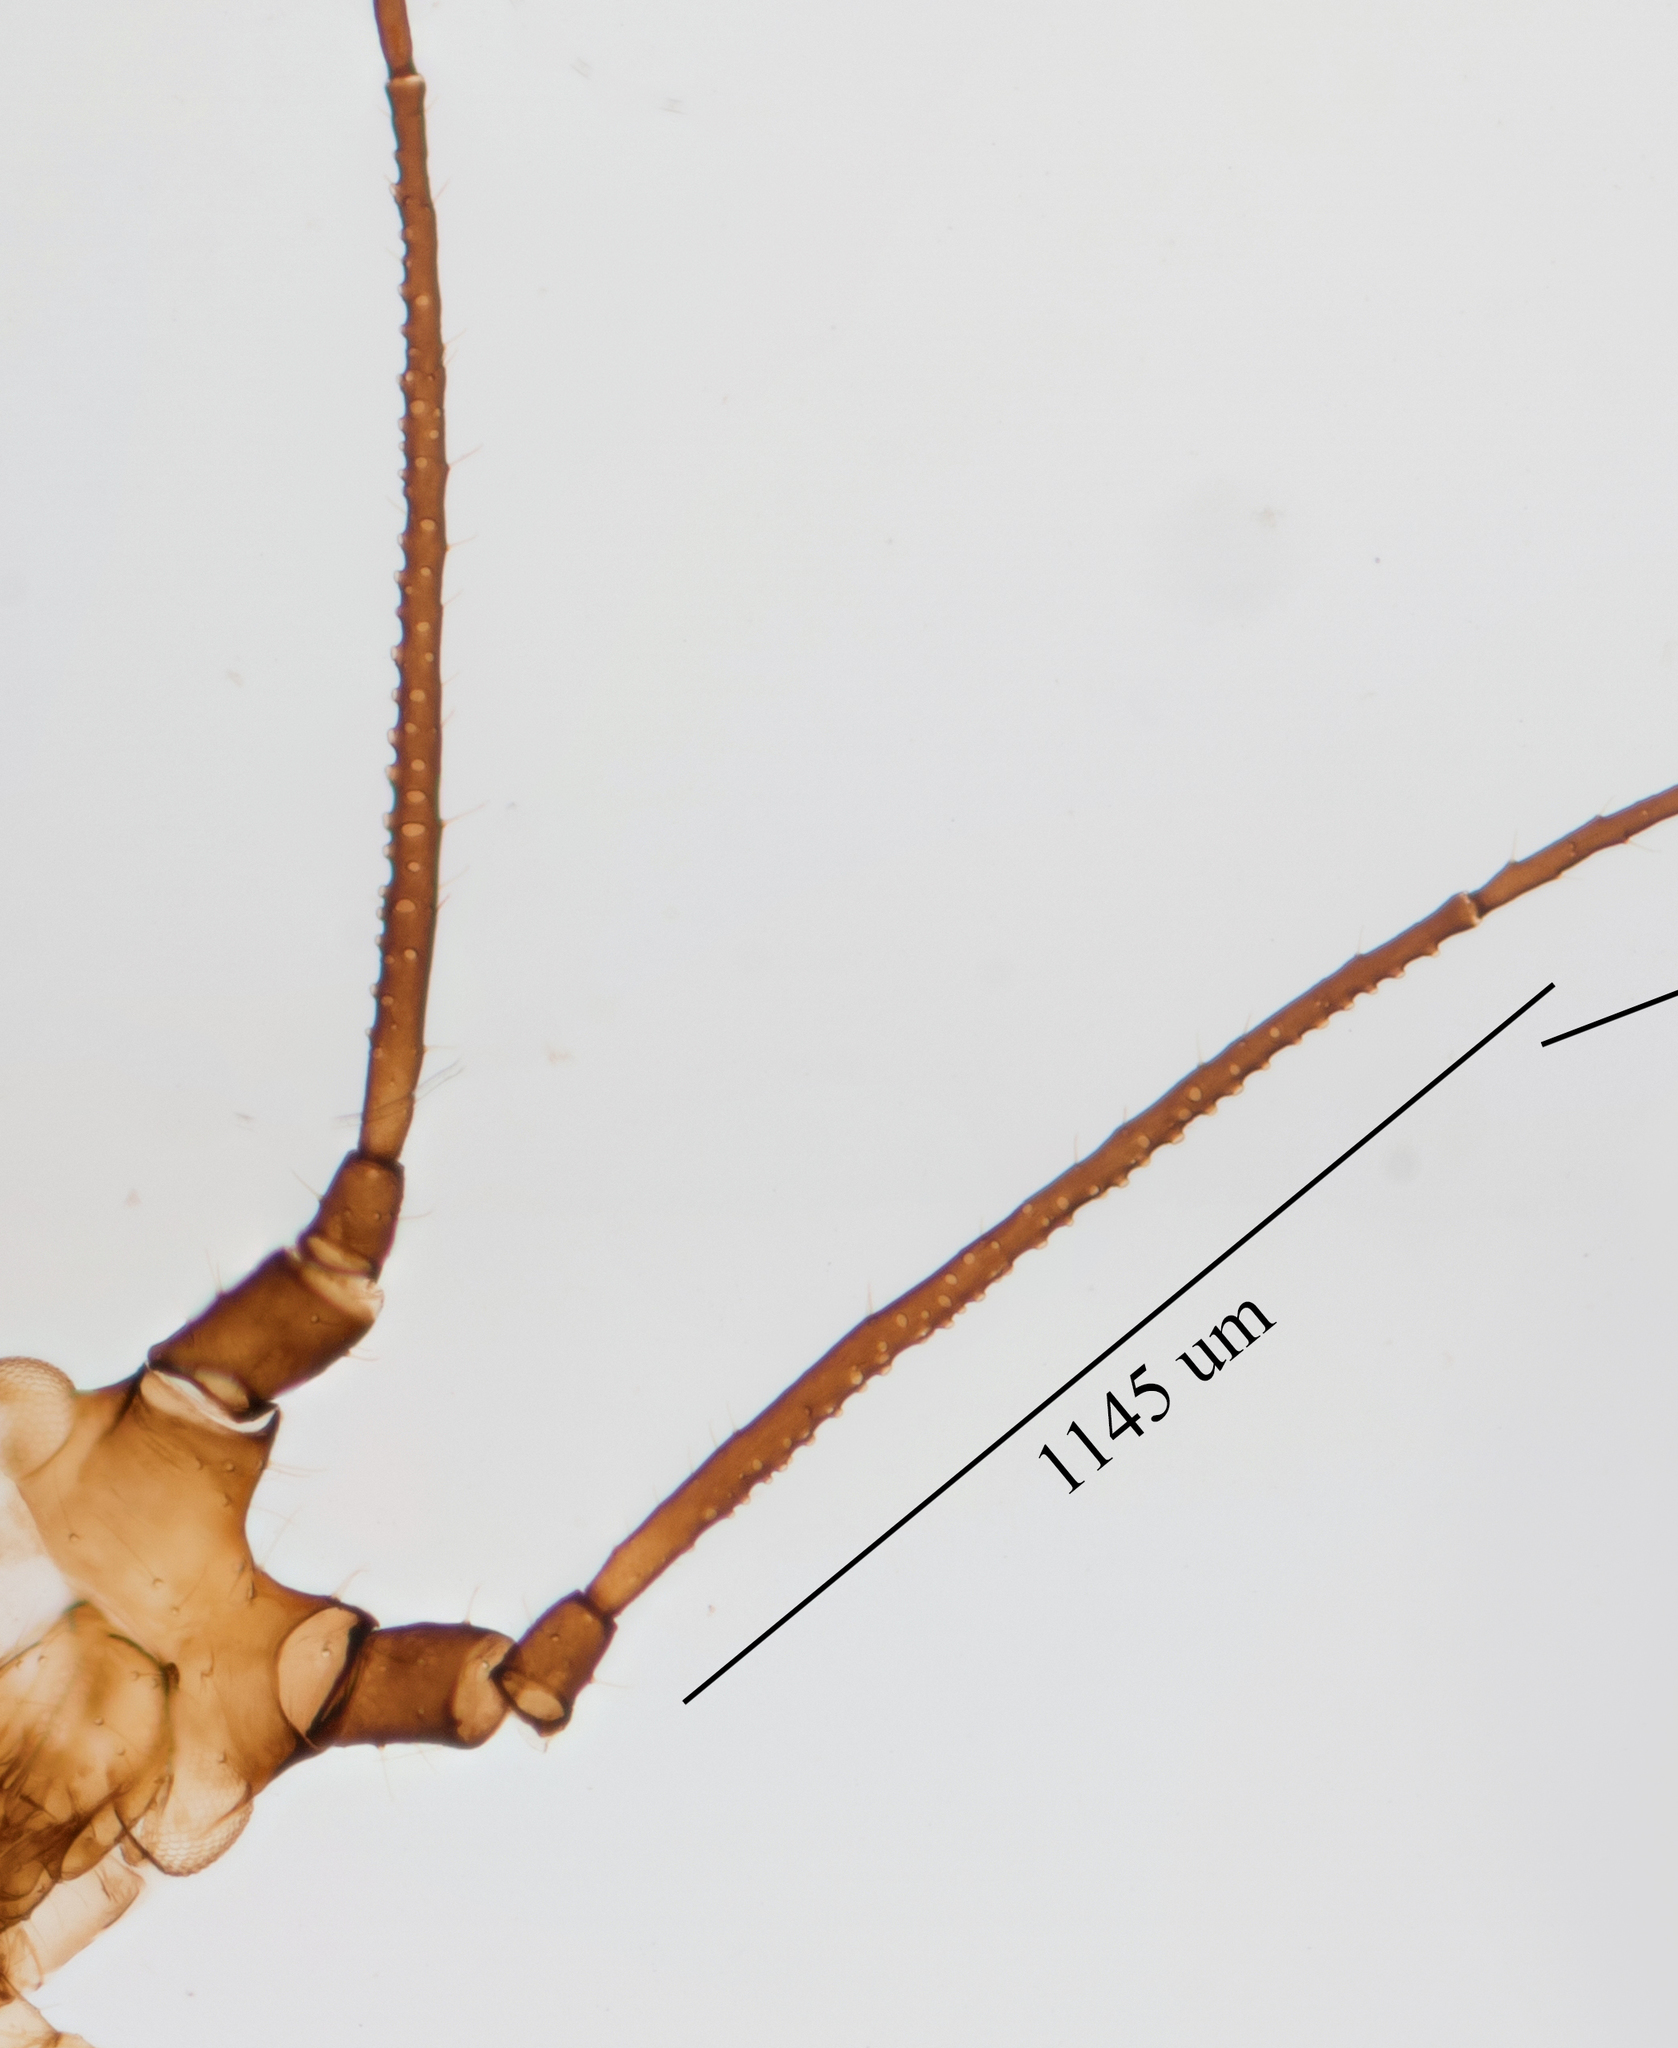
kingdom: Animalia
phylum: Arthropoda
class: Insecta
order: Hemiptera
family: Aphididae
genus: Uroleucon
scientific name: Uroleucon picridis
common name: Aphid
